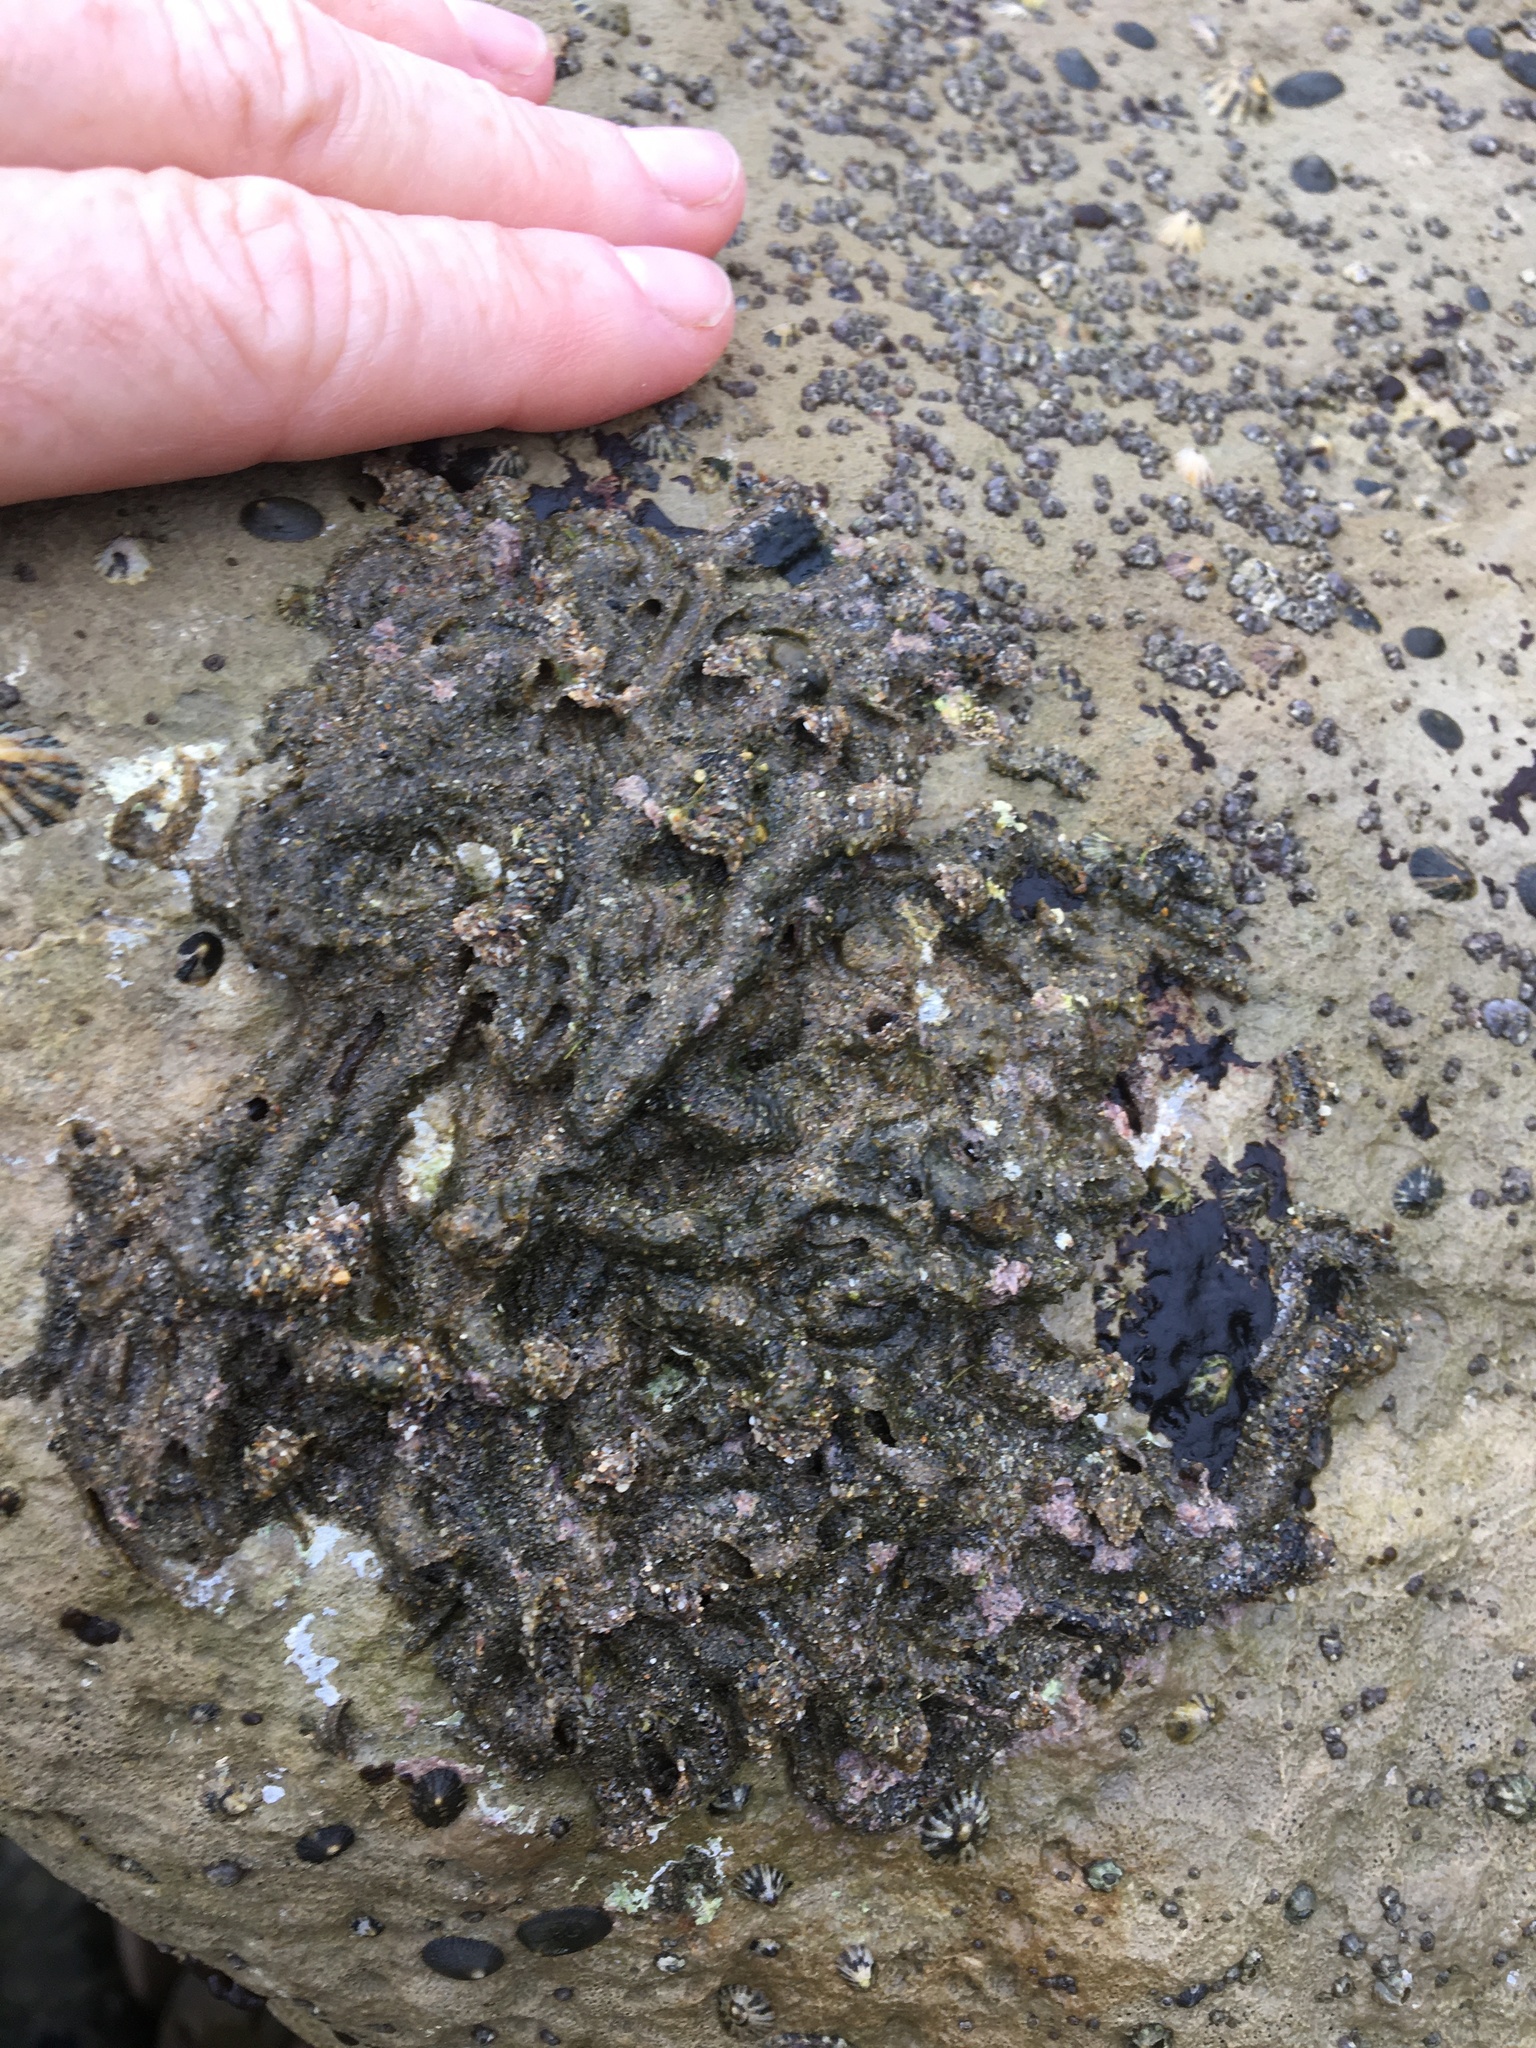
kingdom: Animalia
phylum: Annelida
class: Polychaeta
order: Sabellida
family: Sabellariidae
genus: Phragmatopoma
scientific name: Phragmatopoma californica
